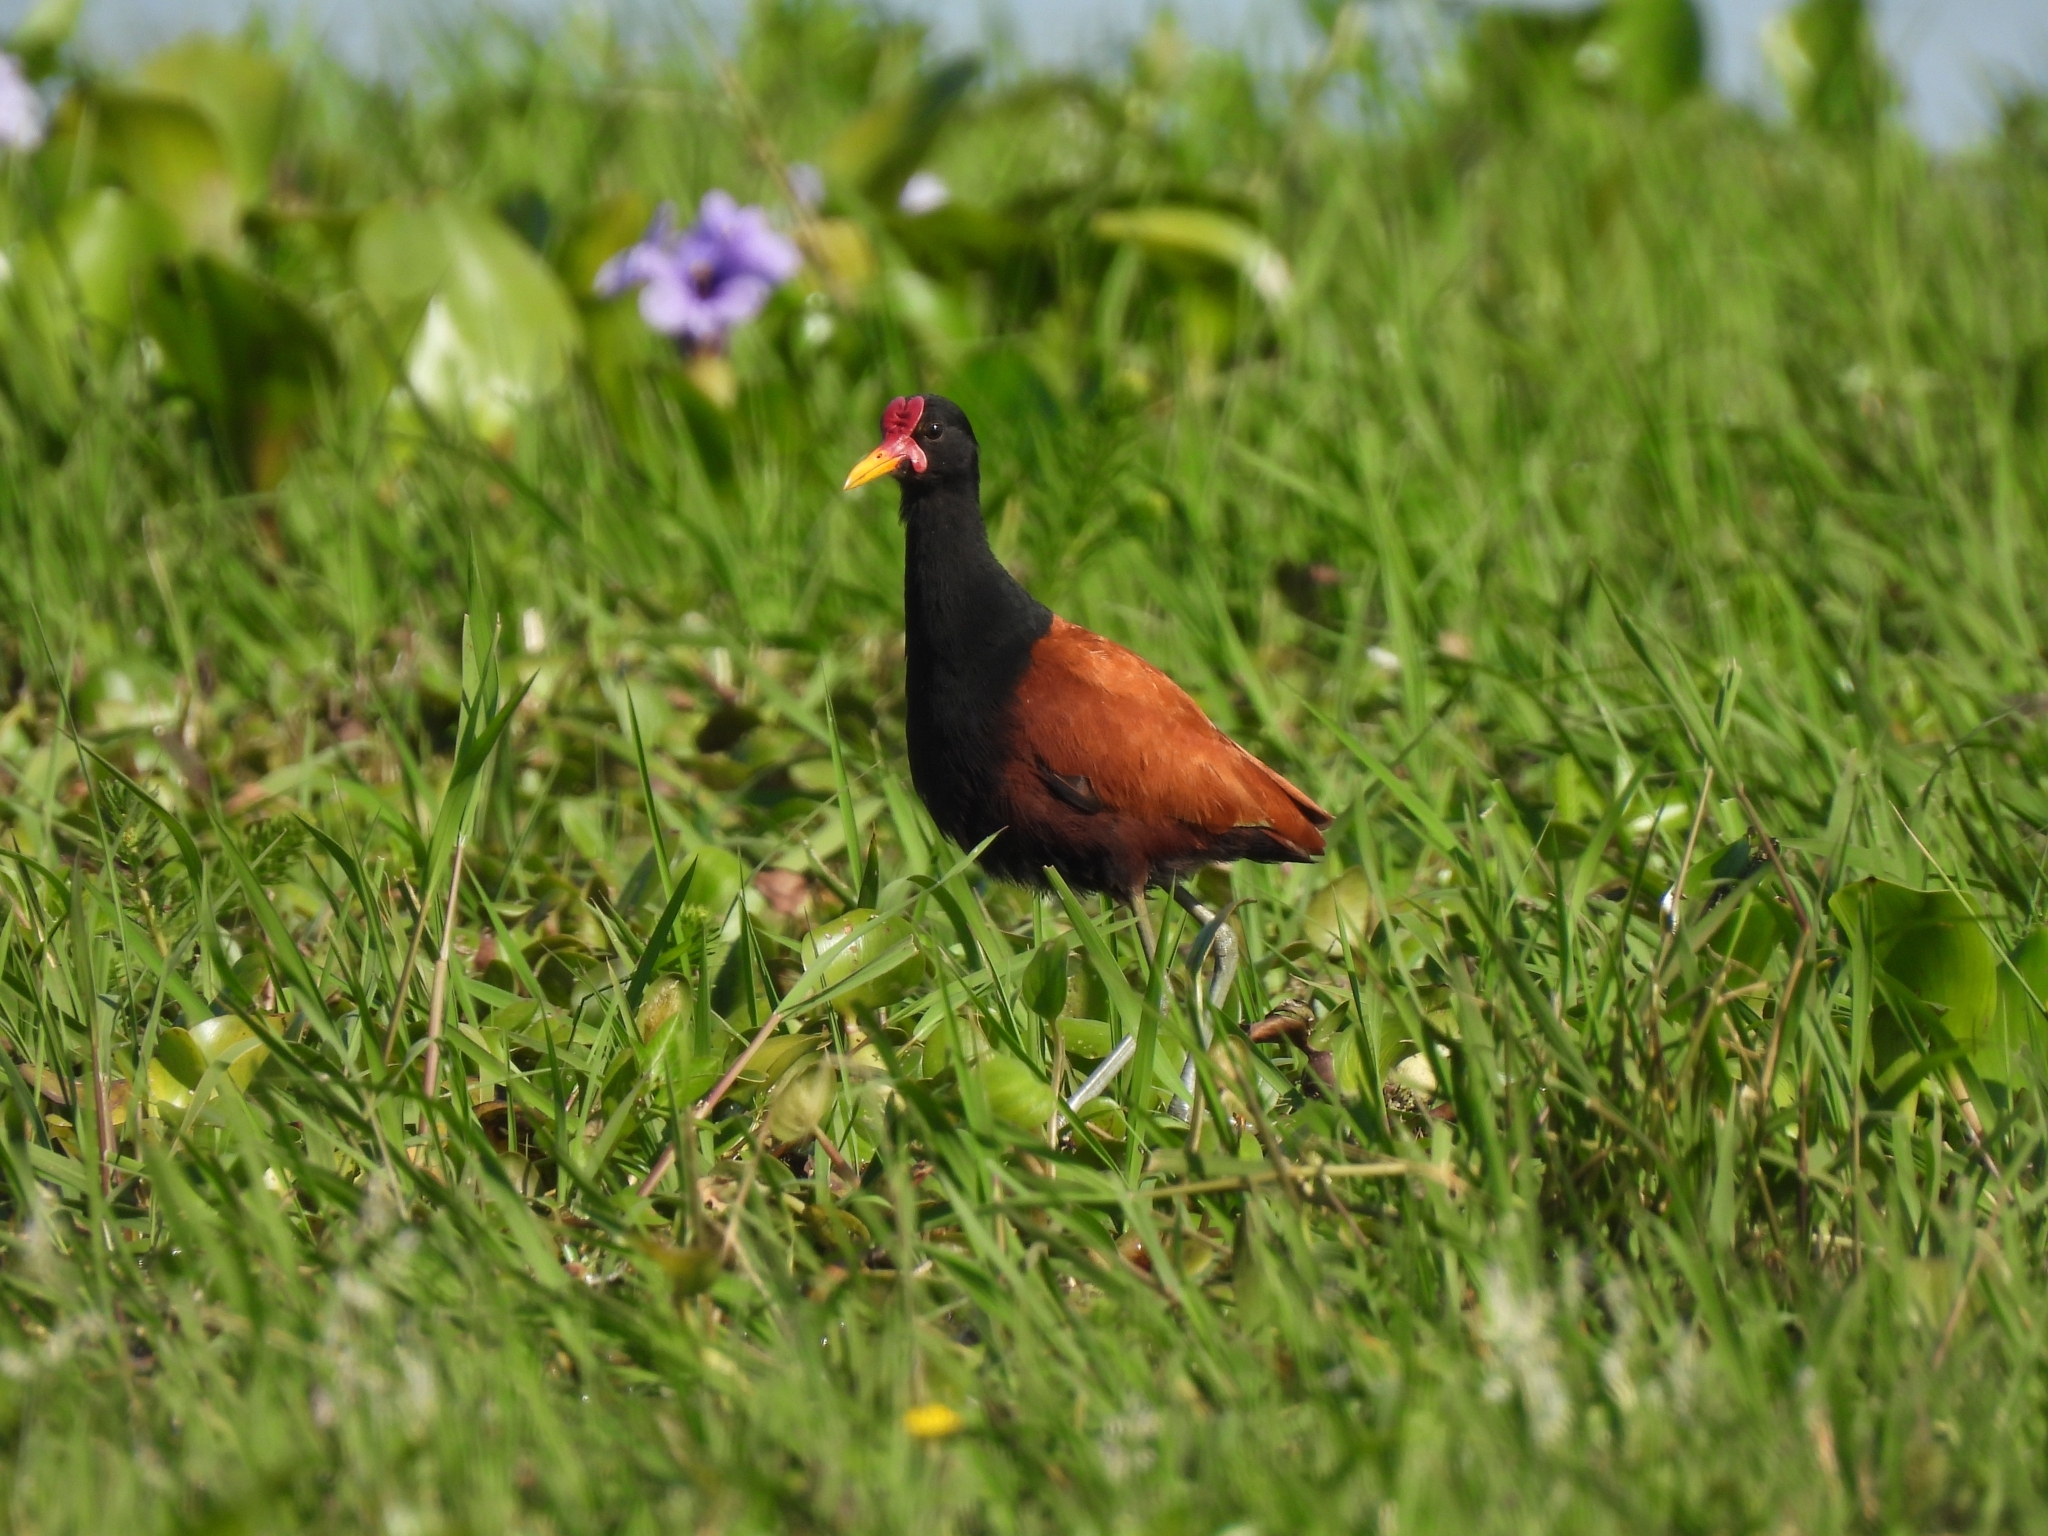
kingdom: Animalia
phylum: Chordata
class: Aves
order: Charadriiformes
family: Jacanidae
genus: Jacana
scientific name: Jacana jacana
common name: Wattled jacana
